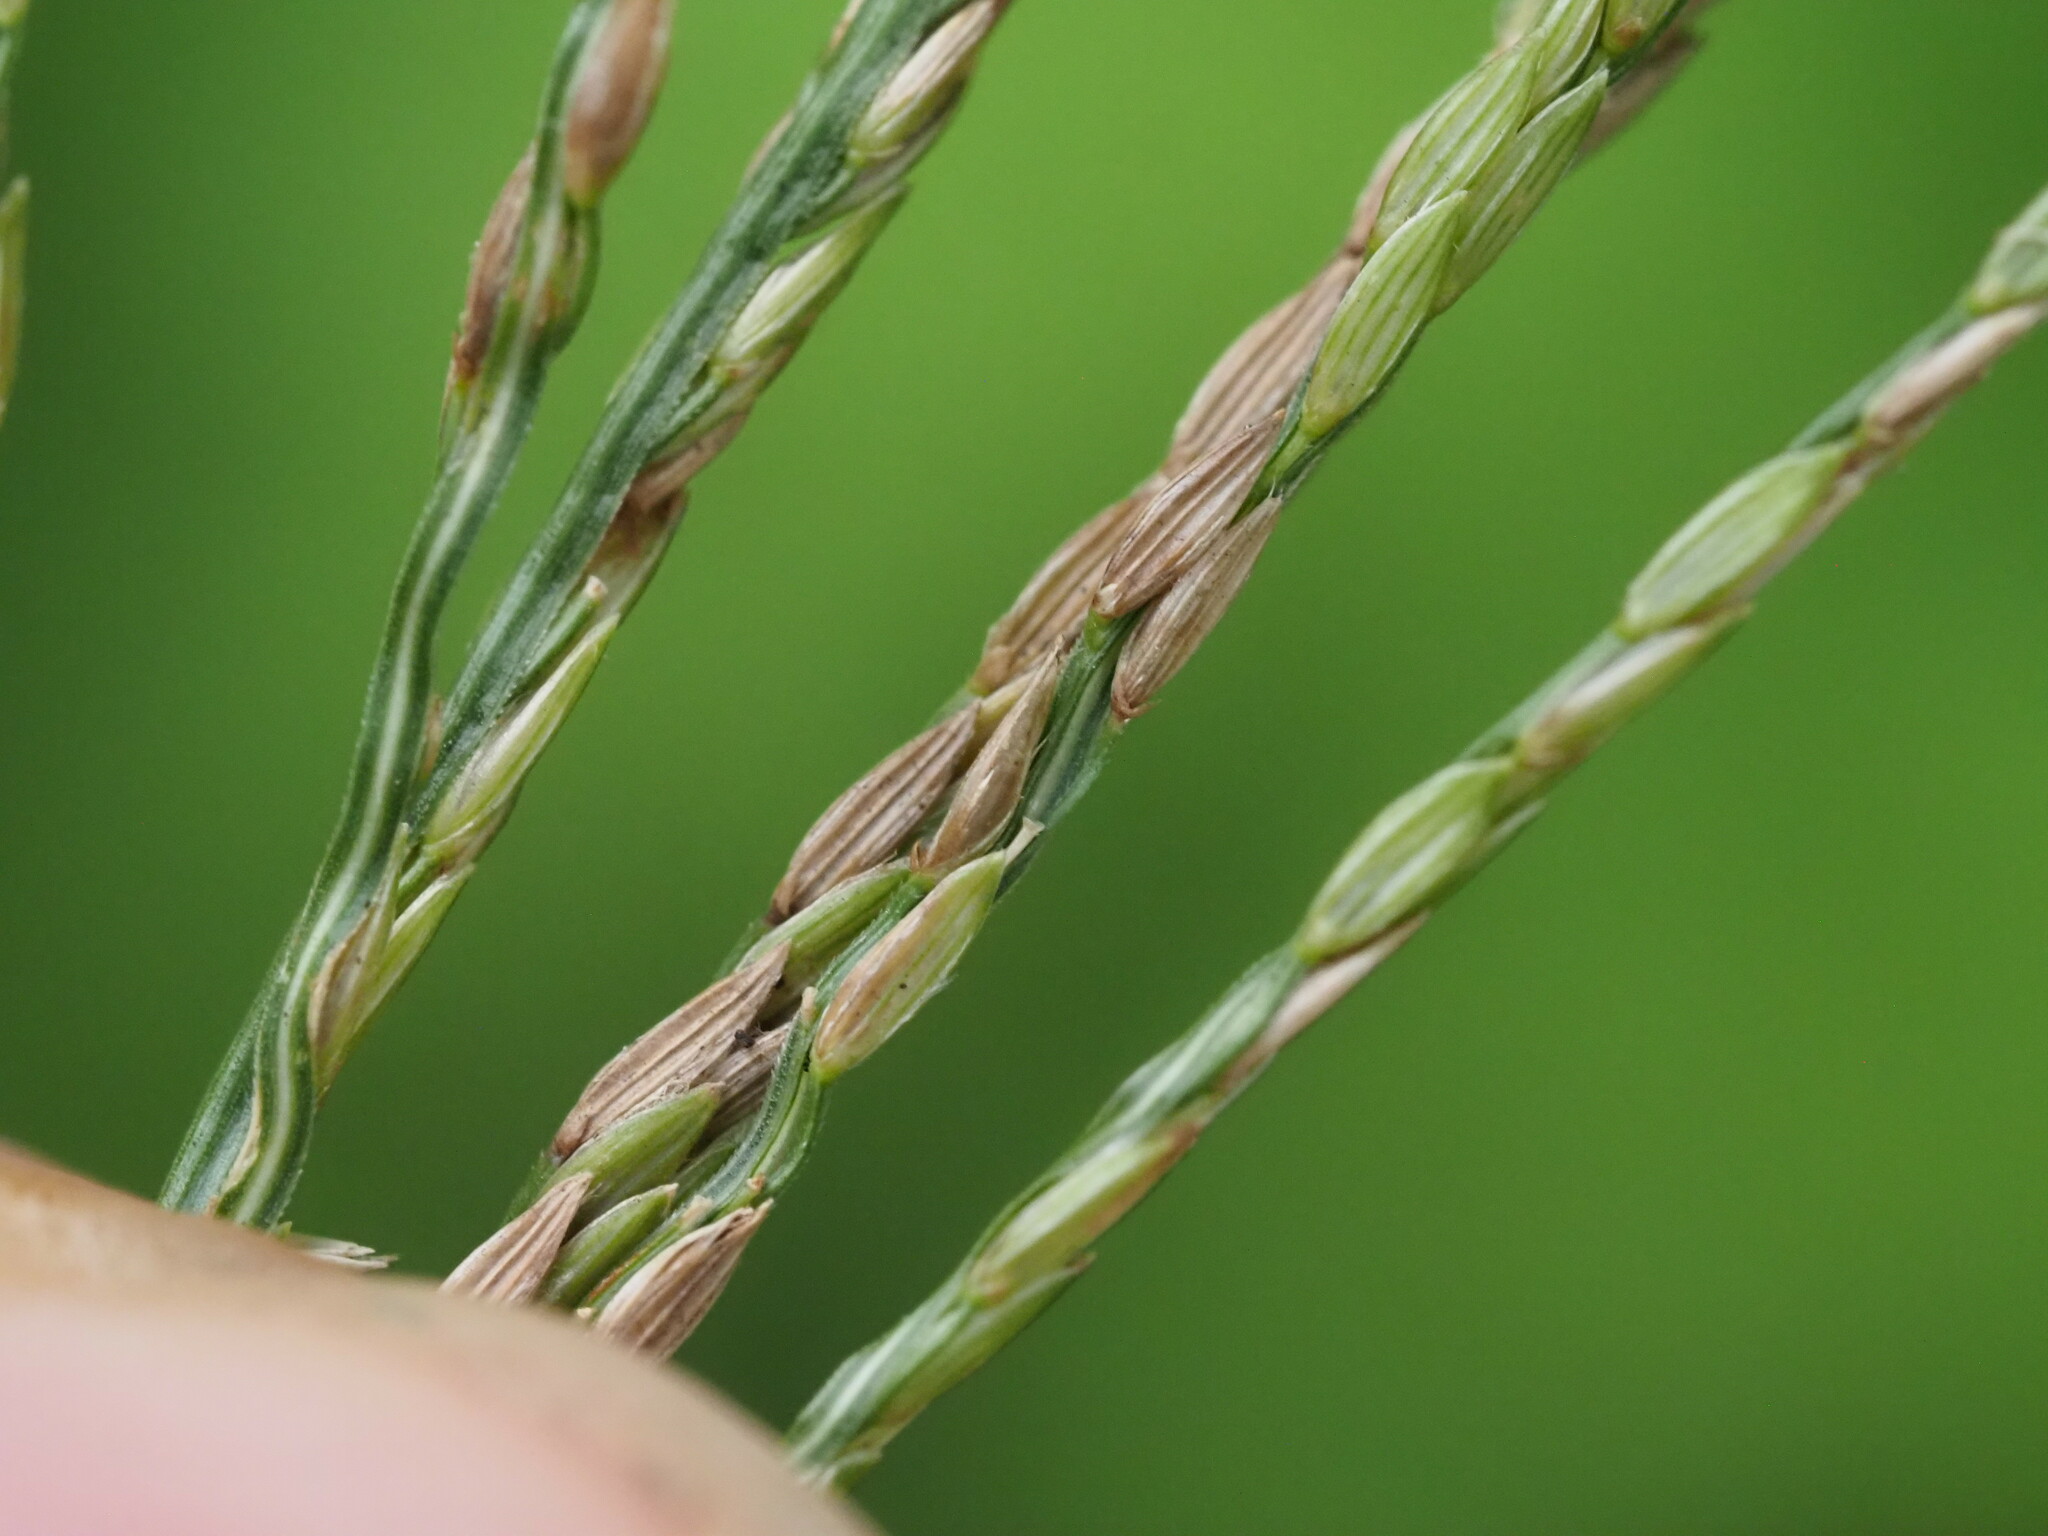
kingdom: Plantae
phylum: Tracheophyta
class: Liliopsida
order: Poales
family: Poaceae
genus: Digitaria
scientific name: Digitaria eriantha
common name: Digitgrass
